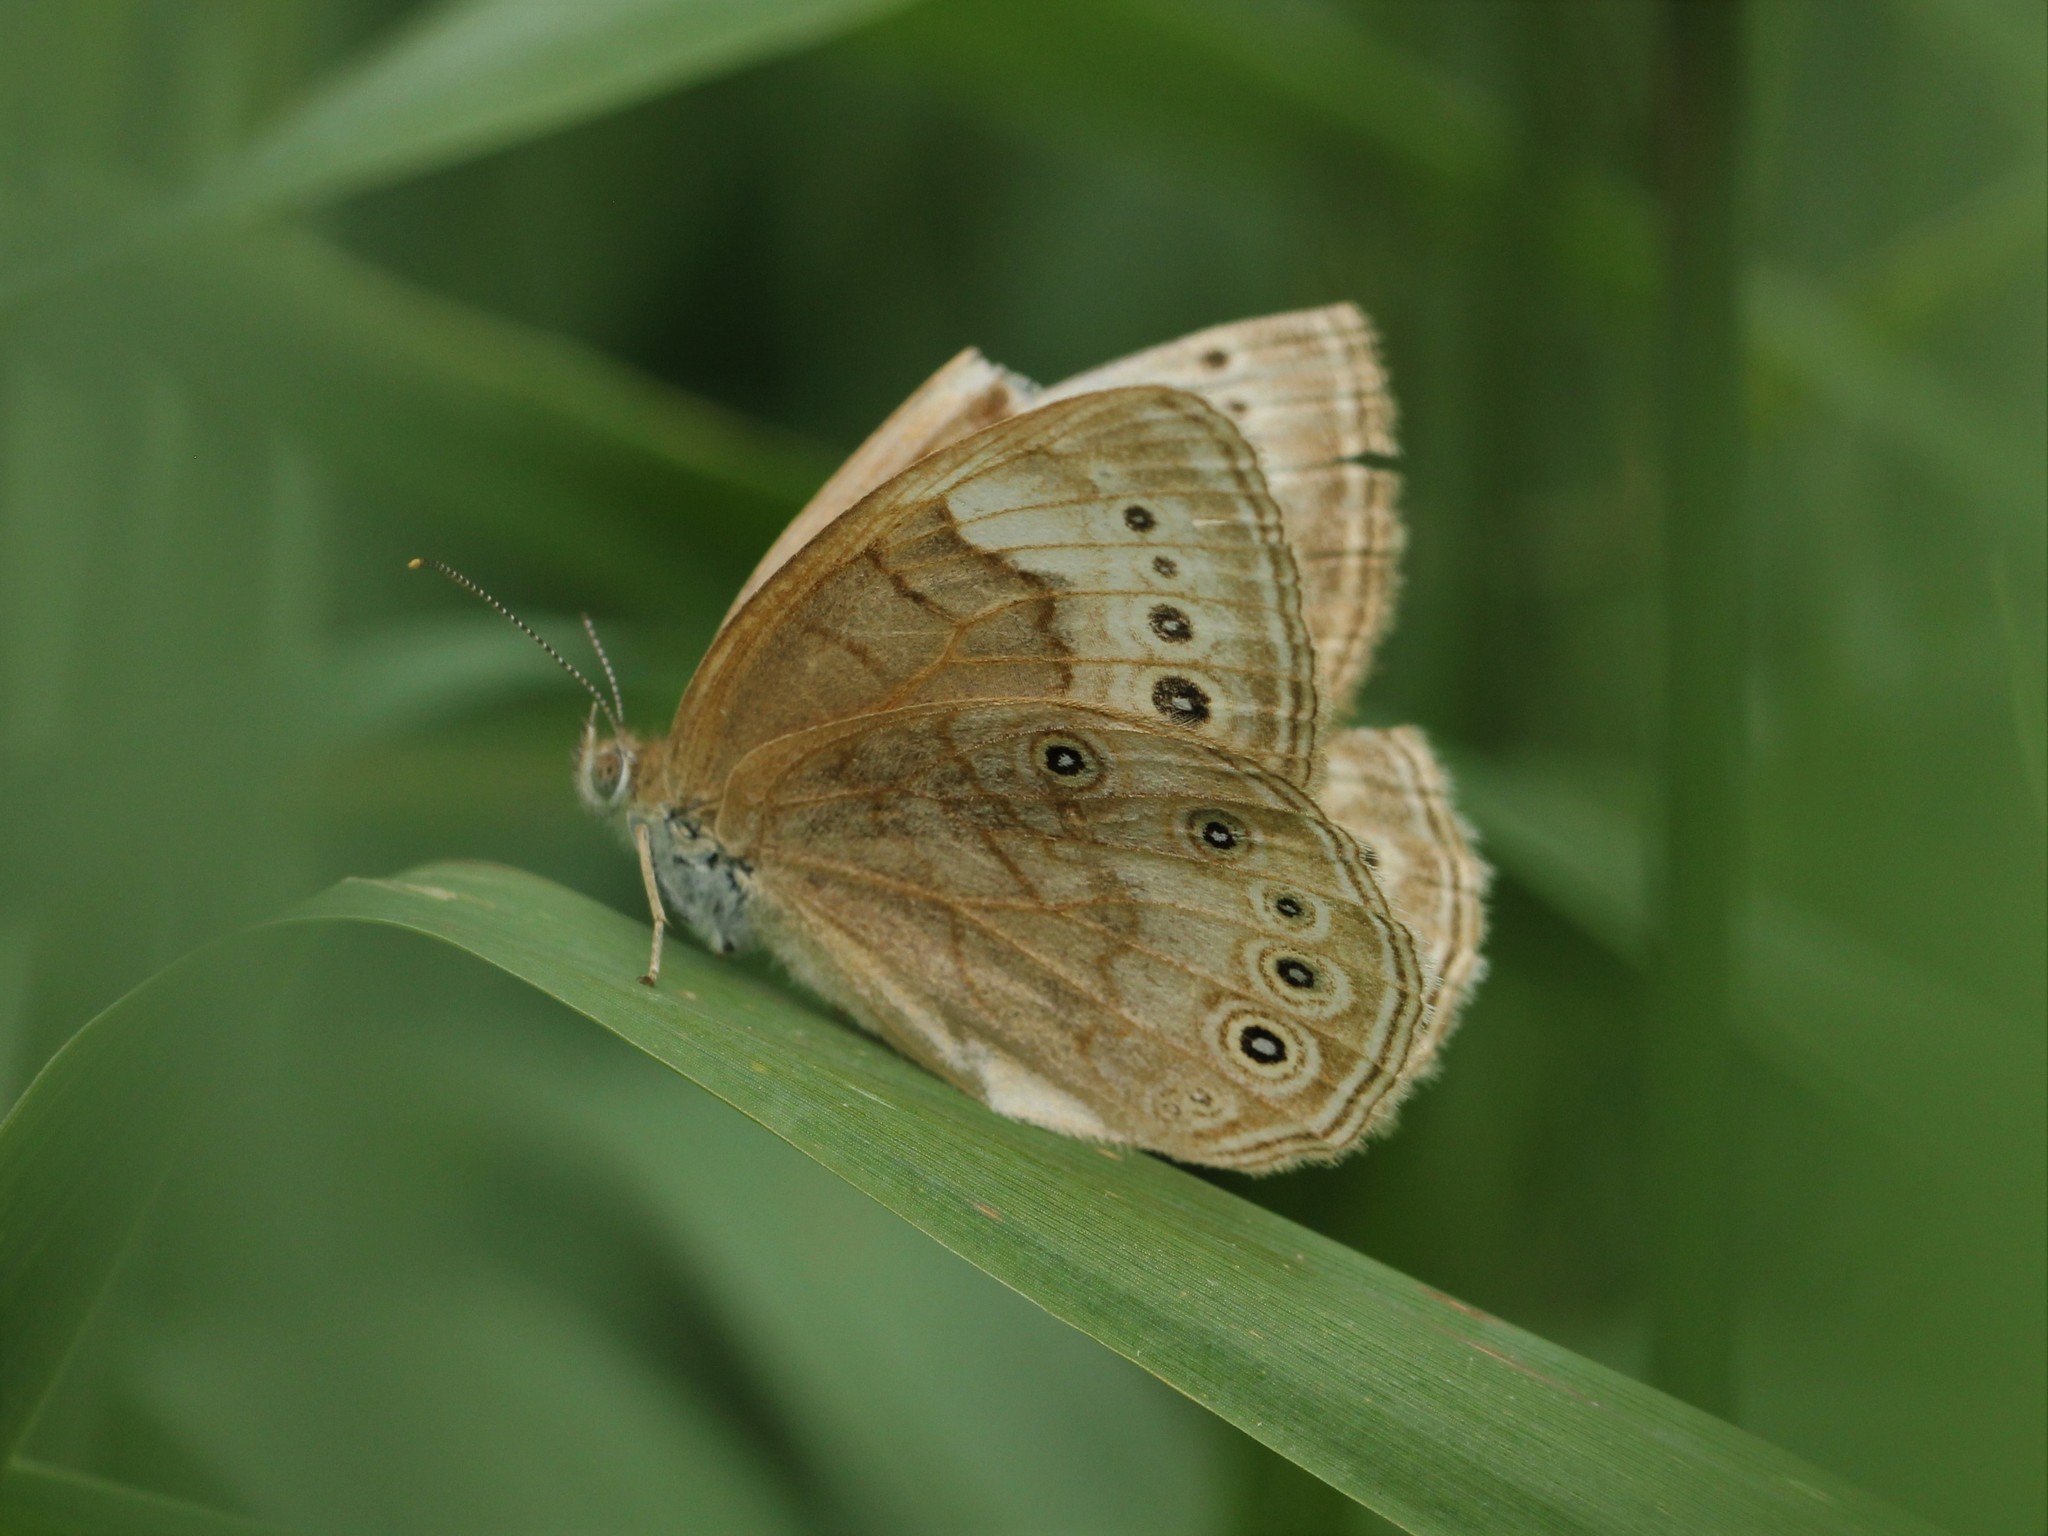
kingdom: Animalia
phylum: Arthropoda
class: Insecta
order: Lepidoptera
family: Nymphalidae
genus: Lethe
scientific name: Lethe eurydice
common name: Eyed brown
